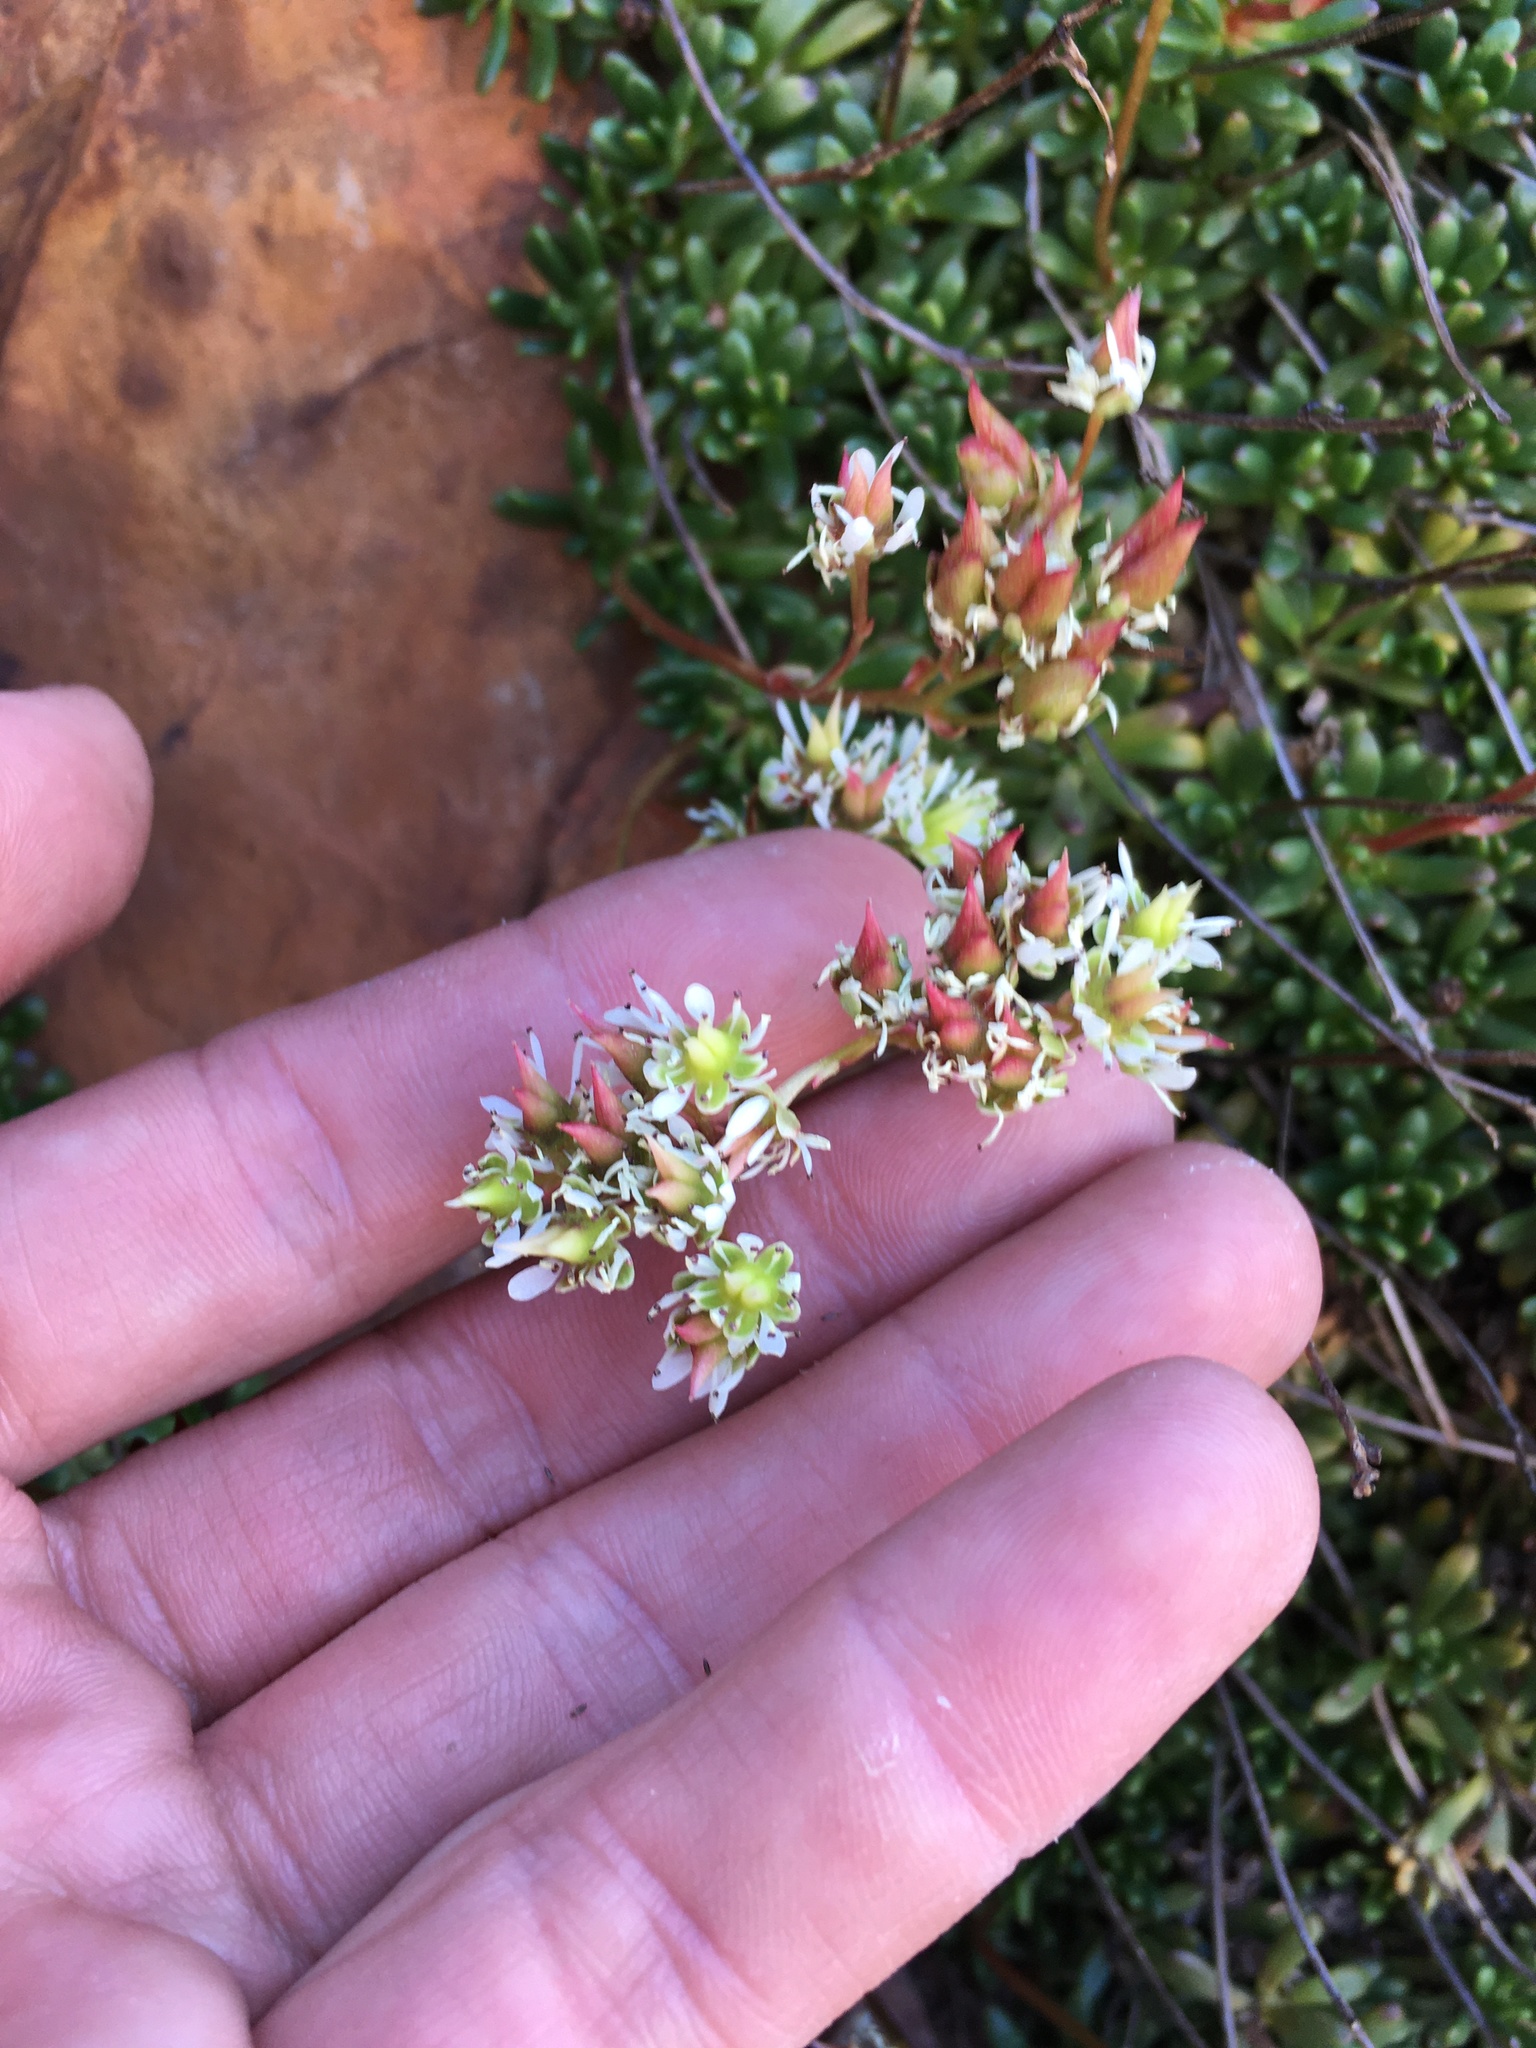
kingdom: Plantae
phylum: Tracheophyta
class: Magnoliopsida
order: Saxifragales
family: Saxifragaceae
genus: Micranthes
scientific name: Micranthes tolmiei
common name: Tolmie's saxifrage
